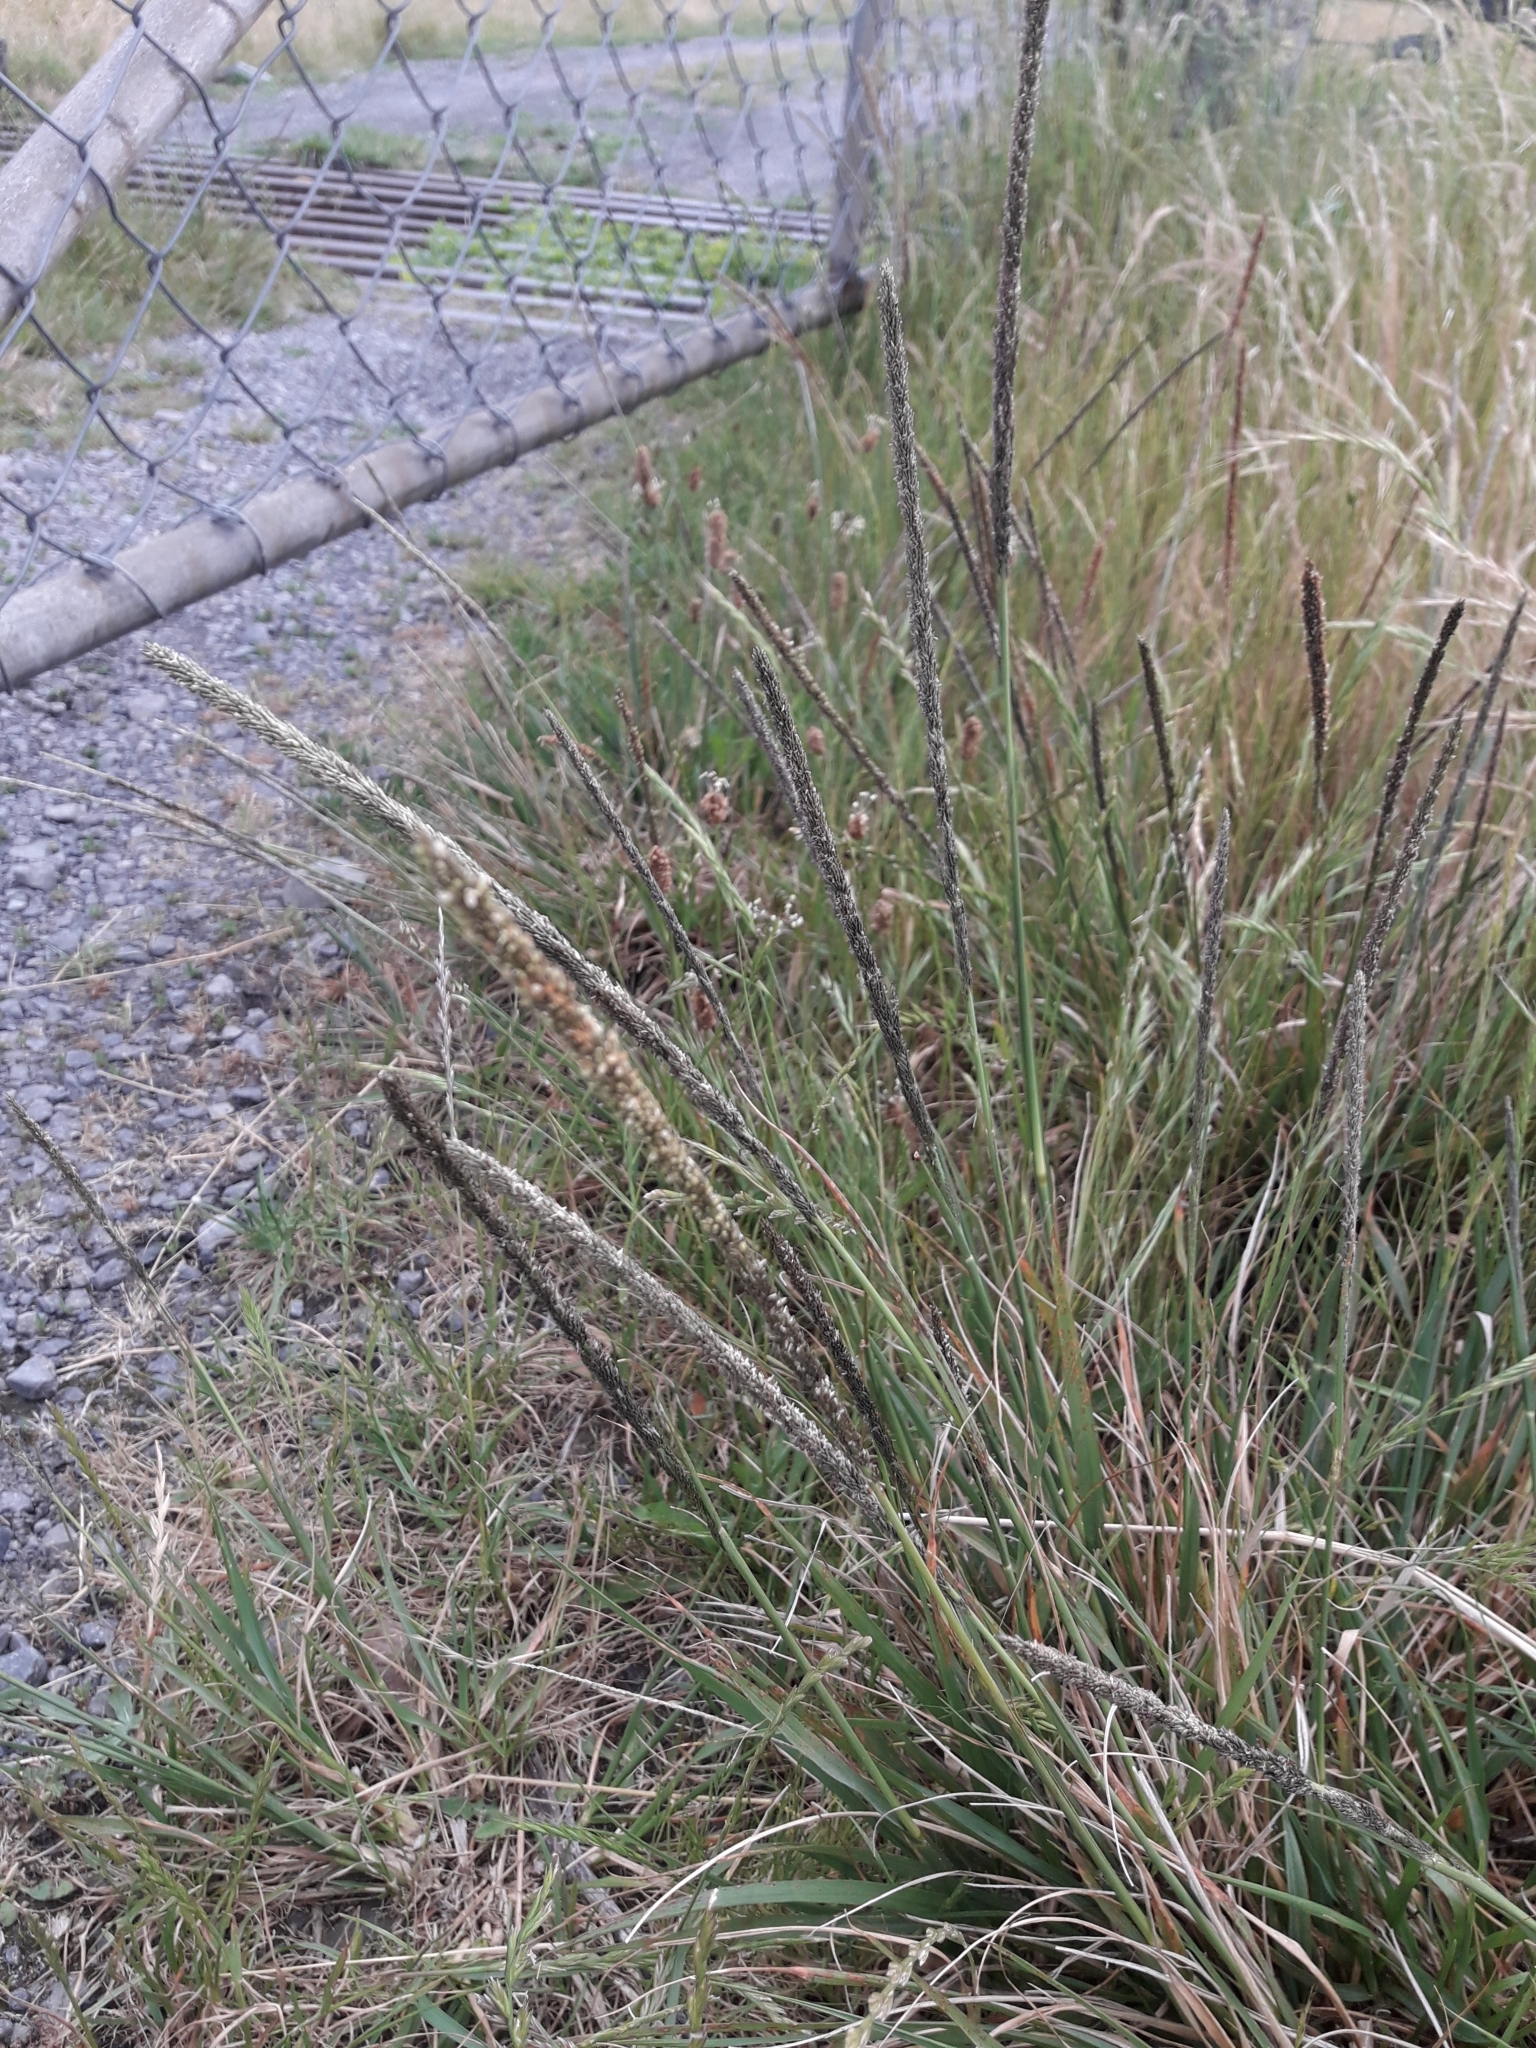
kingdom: Plantae
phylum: Tracheophyta
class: Liliopsida
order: Poales
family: Poaceae
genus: Sporobolus
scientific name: Sporobolus africanus
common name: African dropseed
